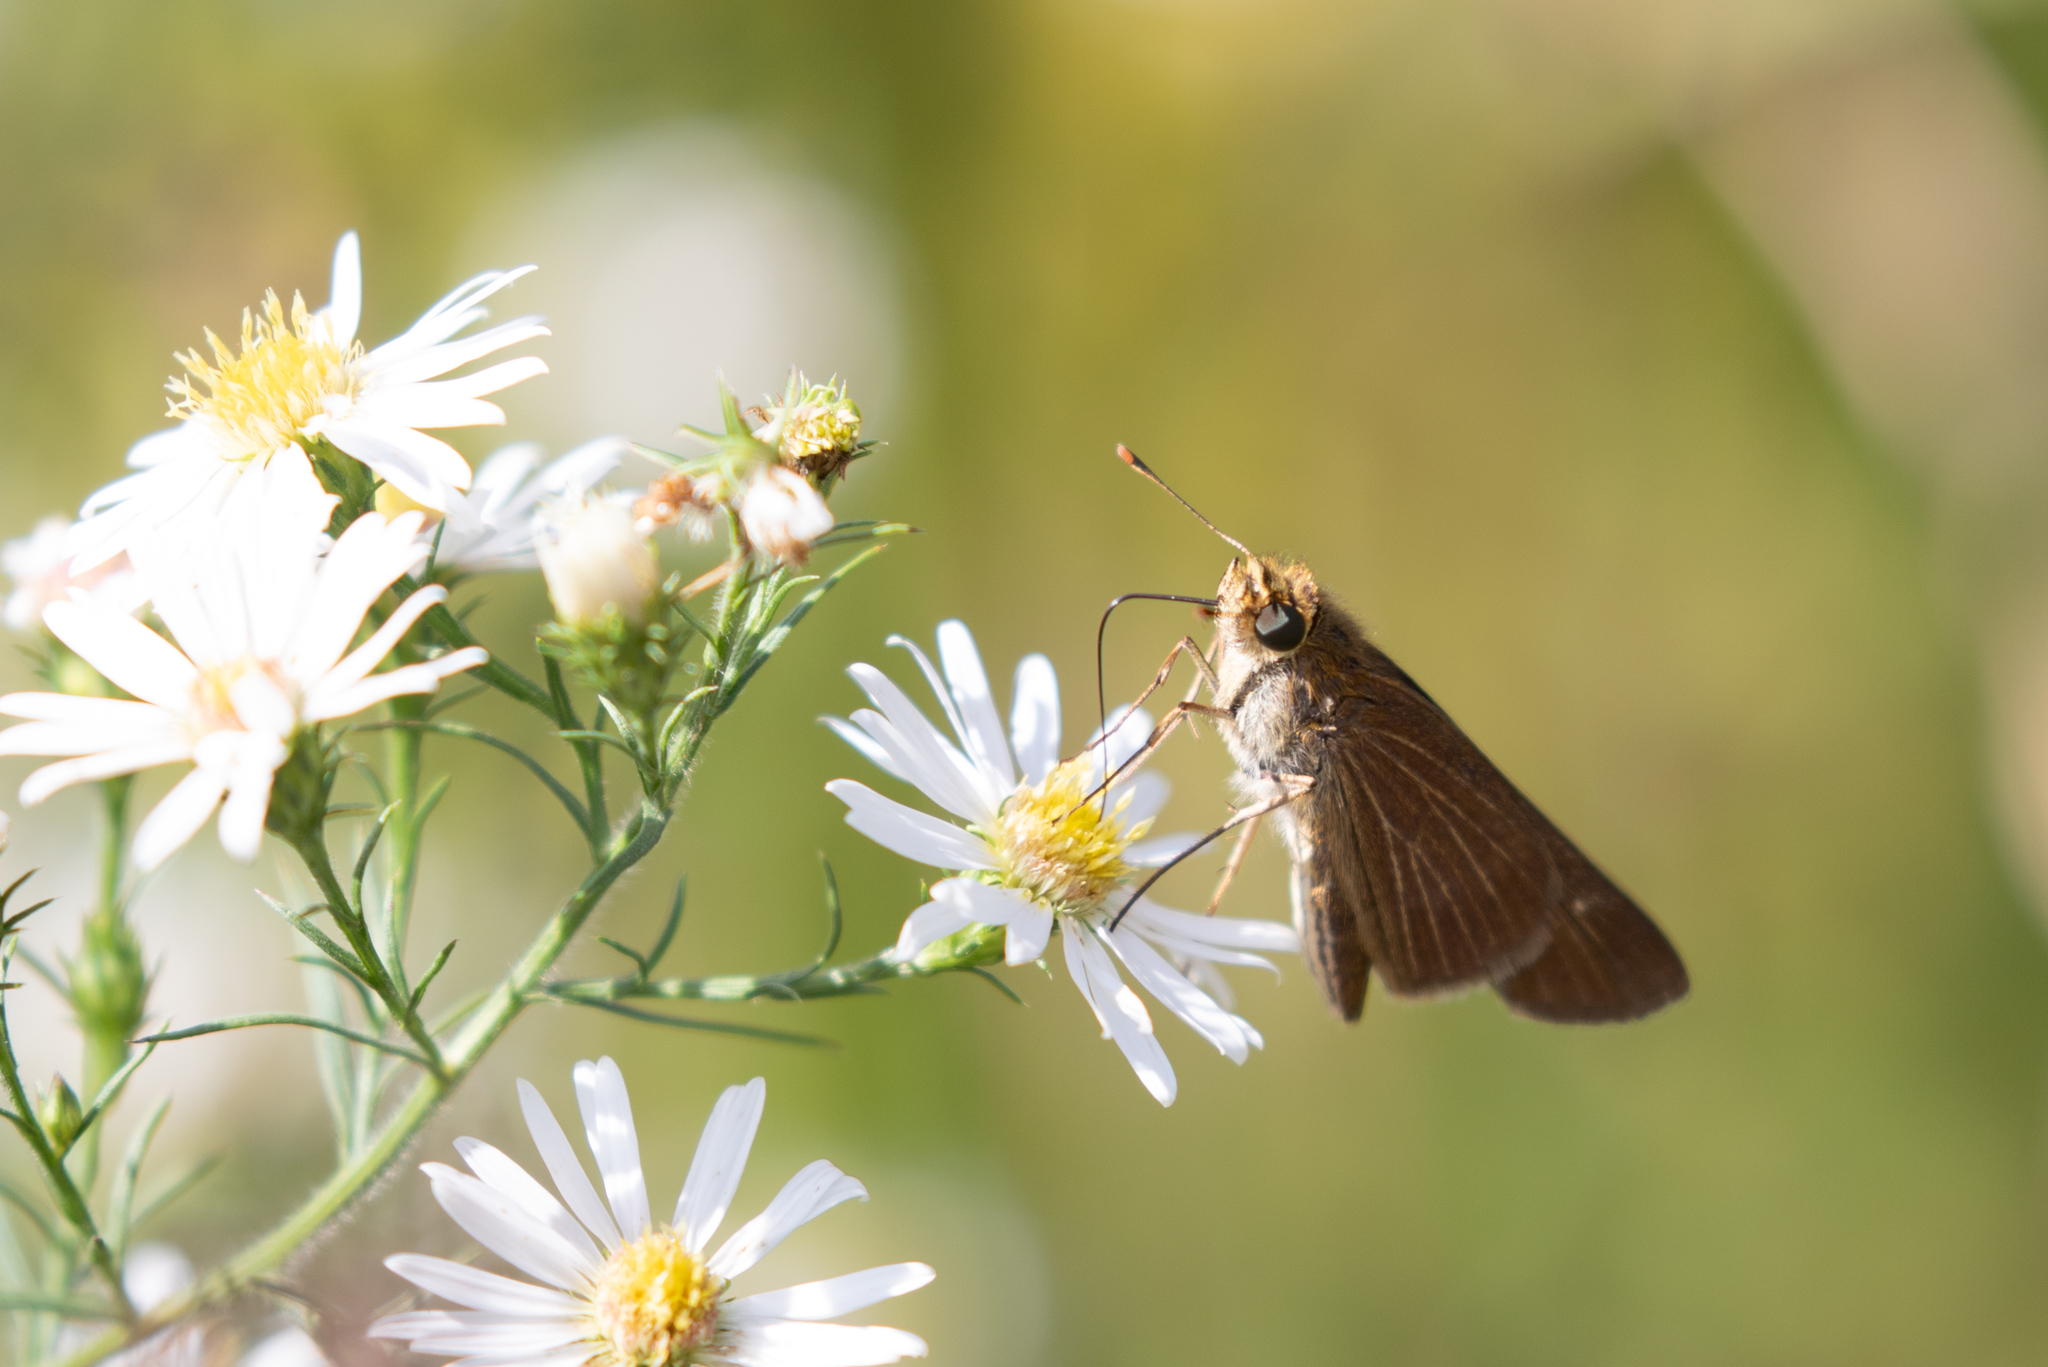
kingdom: Animalia
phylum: Arthropoda
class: Insecta
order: Lepidoptera
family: Hesperiidae
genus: Panoquina
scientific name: Panoquina ocola
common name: Ocola skipper
